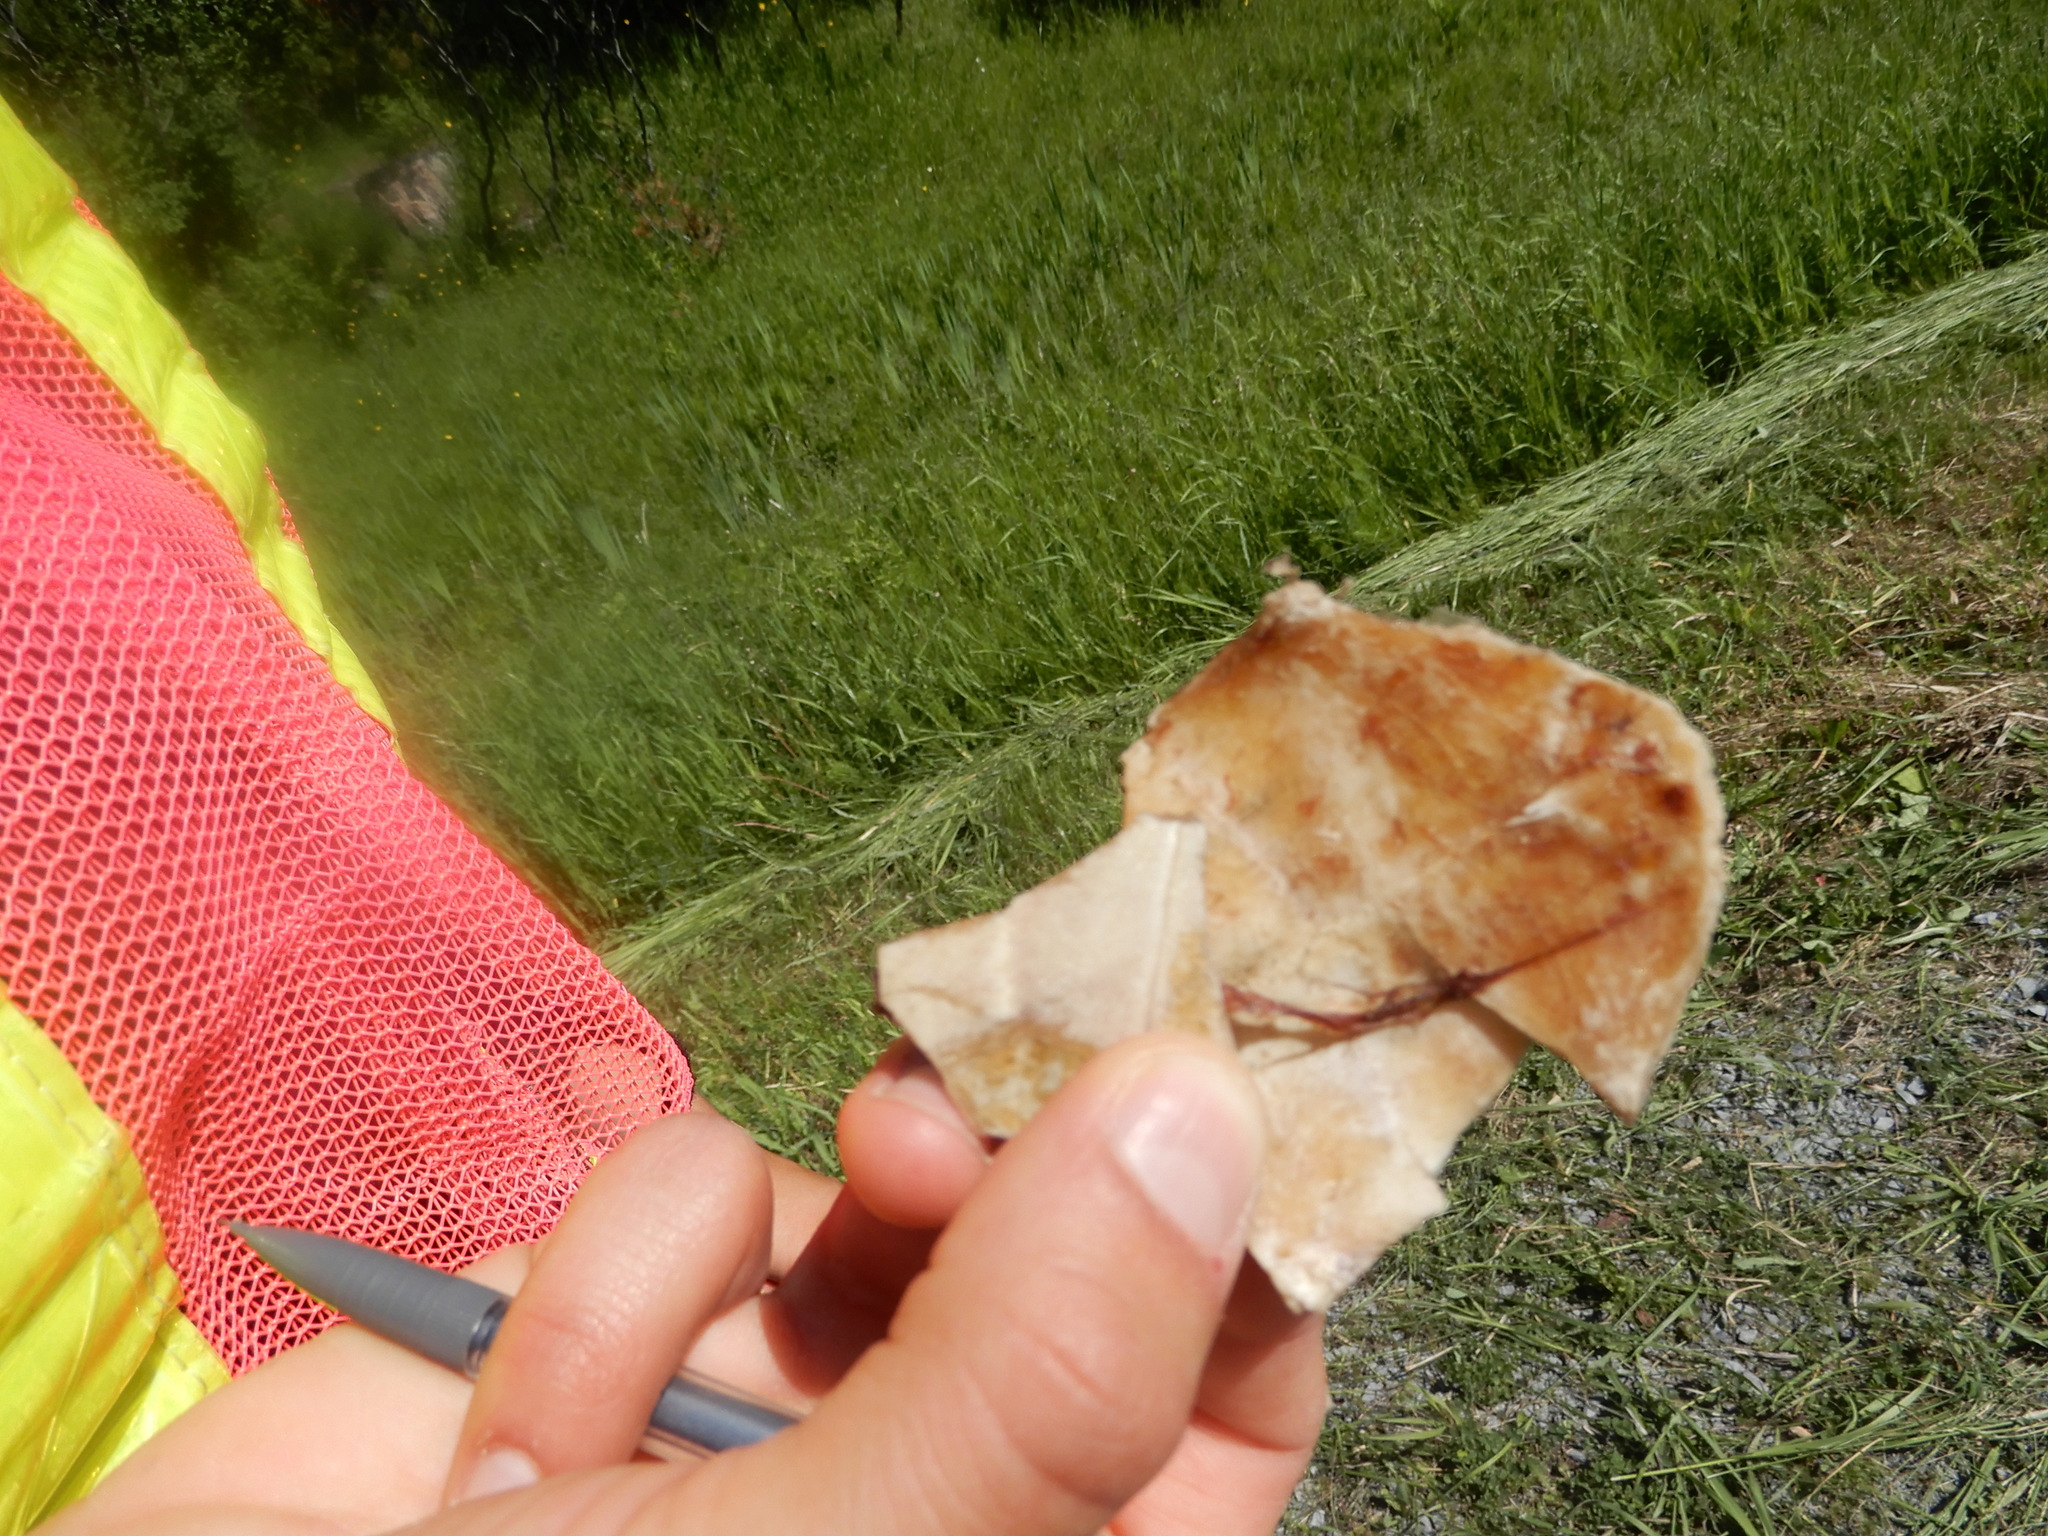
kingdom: Animalia
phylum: Chordata
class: Testudines
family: Emydidae
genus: Chrysemys
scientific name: Chrysemys picta
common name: Painted turtle
